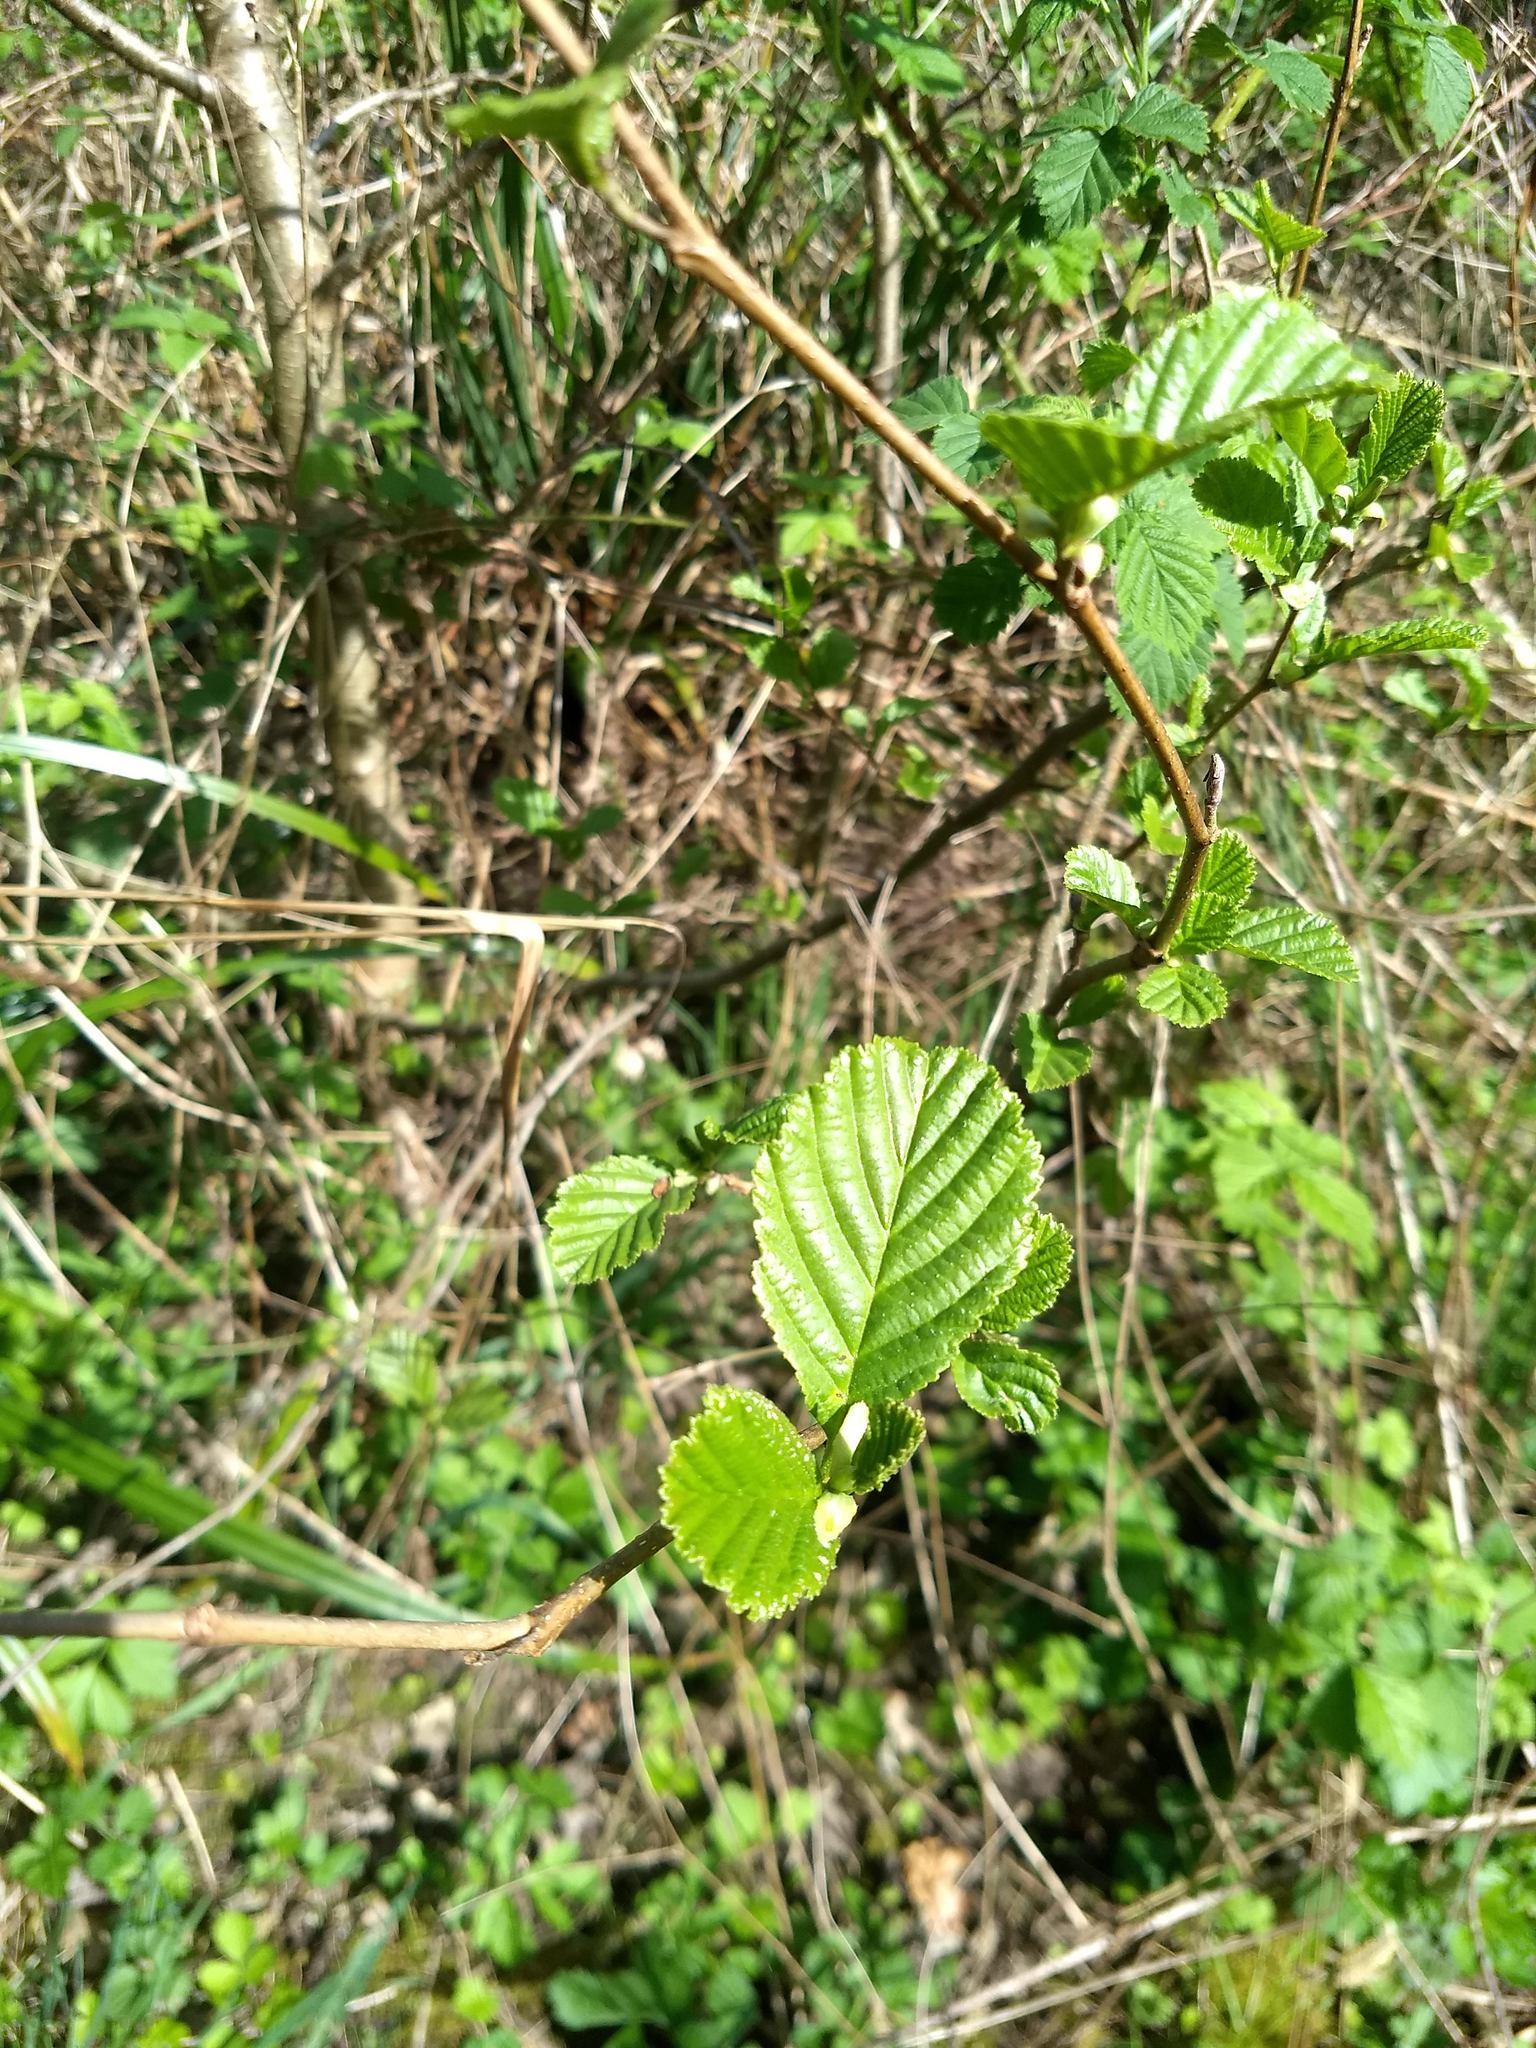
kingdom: Plantae
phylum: Tracheophyta
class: Magnoliopsida
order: Fagales
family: Betulaceae
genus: Alnus
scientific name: Alnus glutinosa
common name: Black alder
